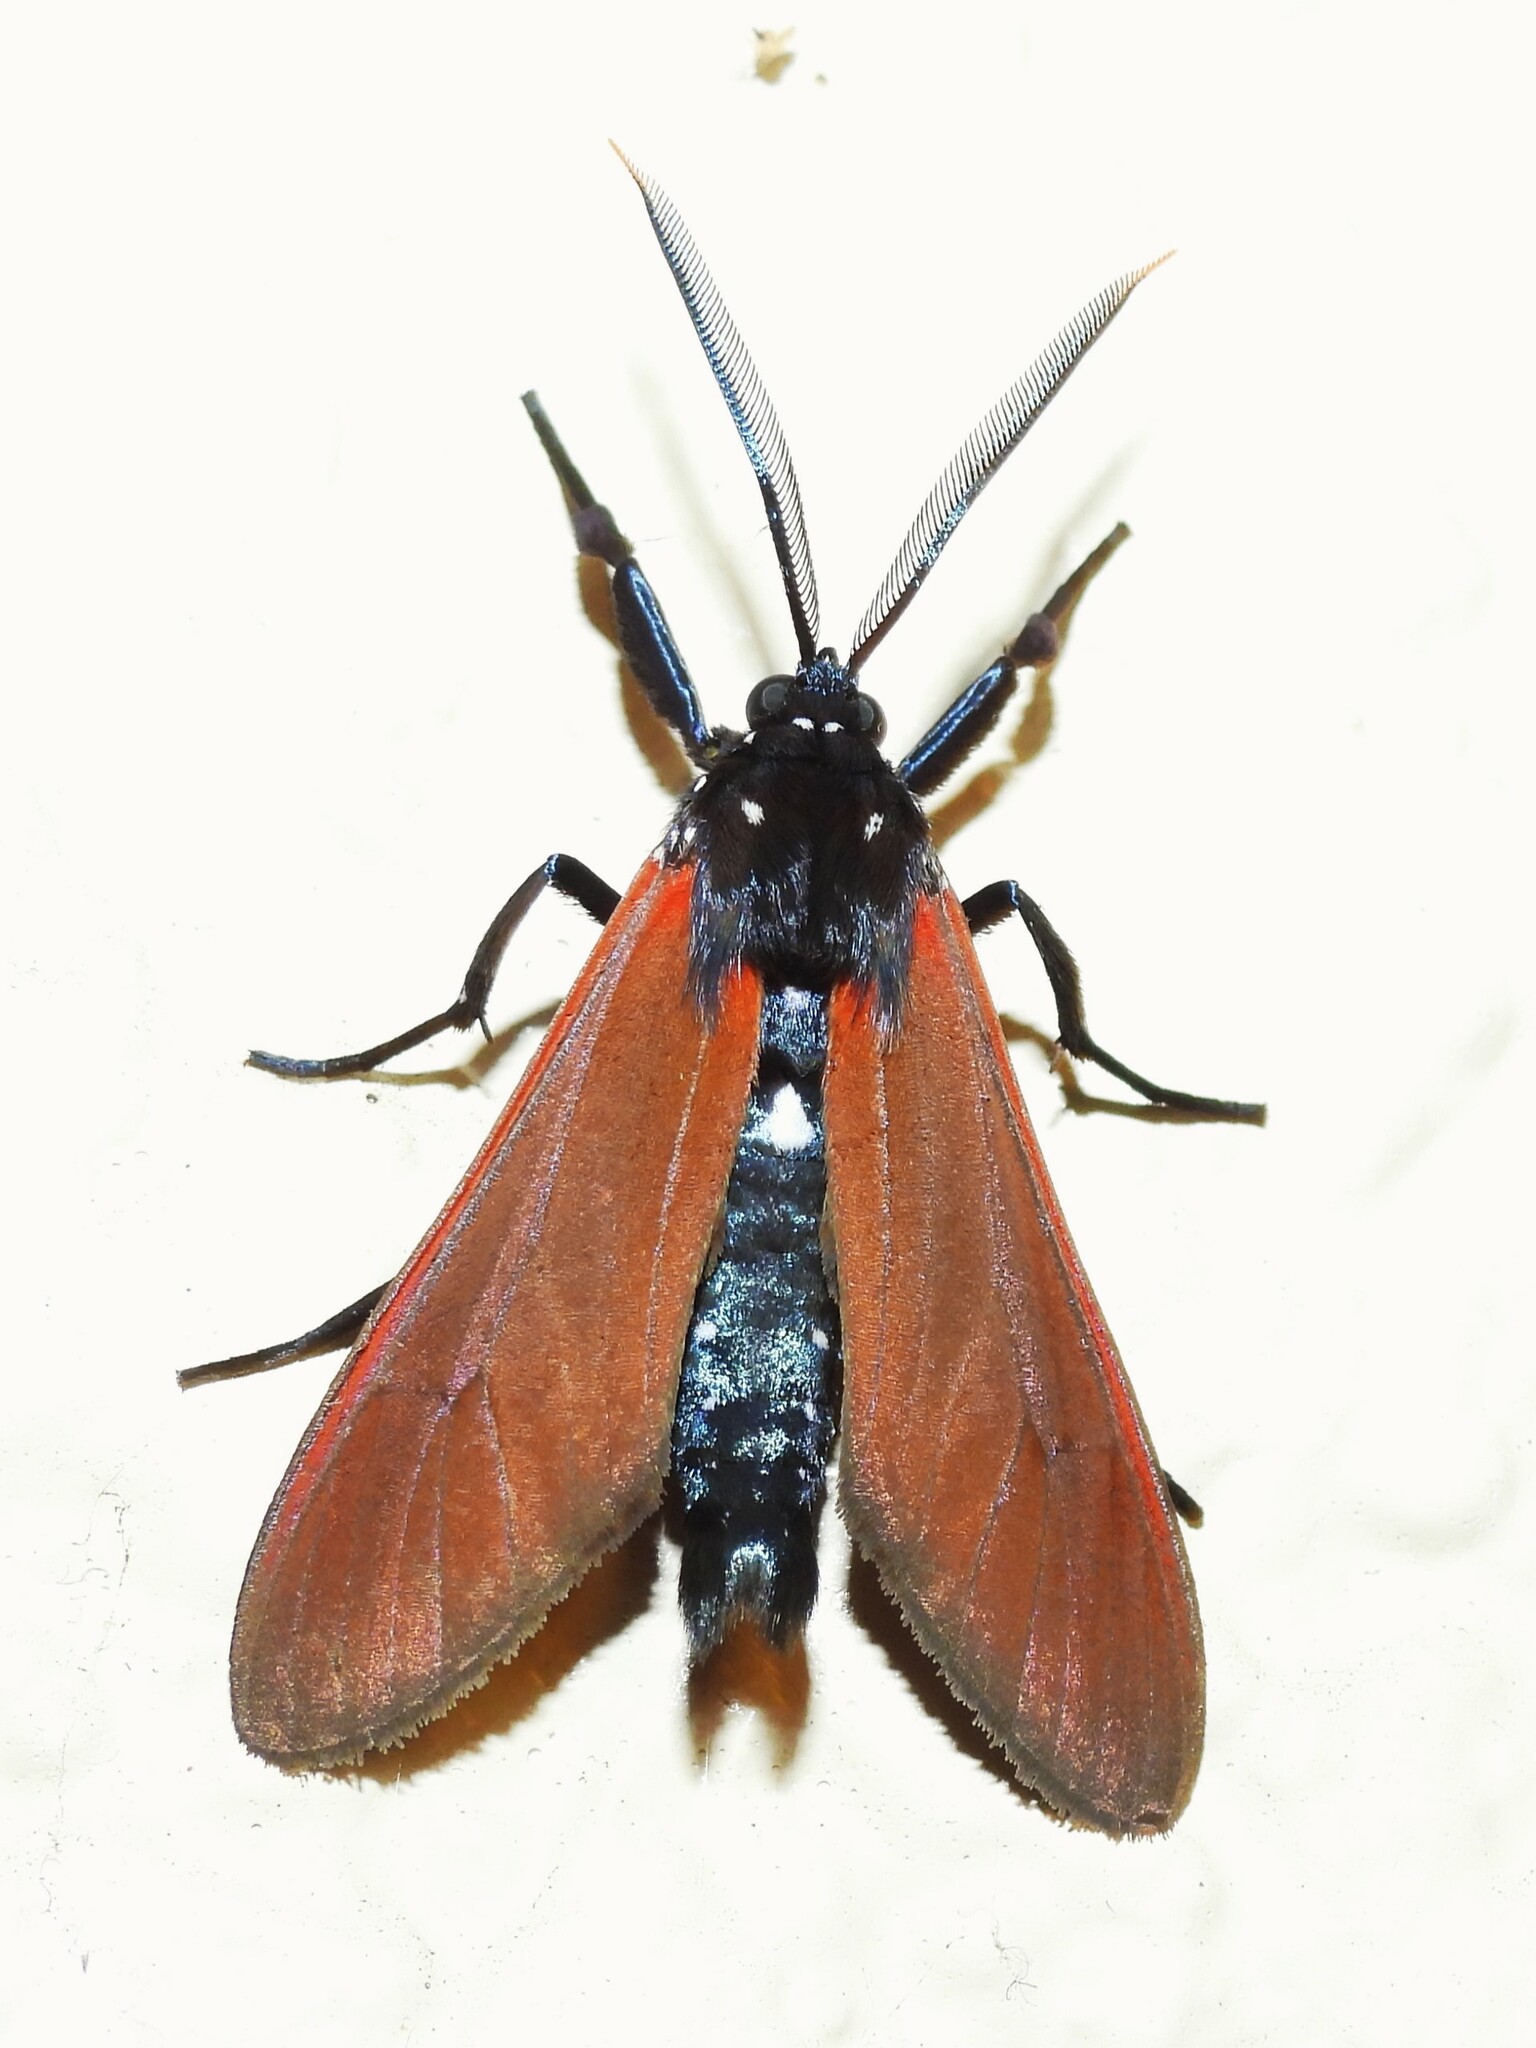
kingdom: Animalia
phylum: Arthropoda
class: Insecta
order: Lepidoptera
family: Erebidae
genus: Empyreuma
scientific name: Empyreuma pugione
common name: Spotted oleander caterpillar moth
